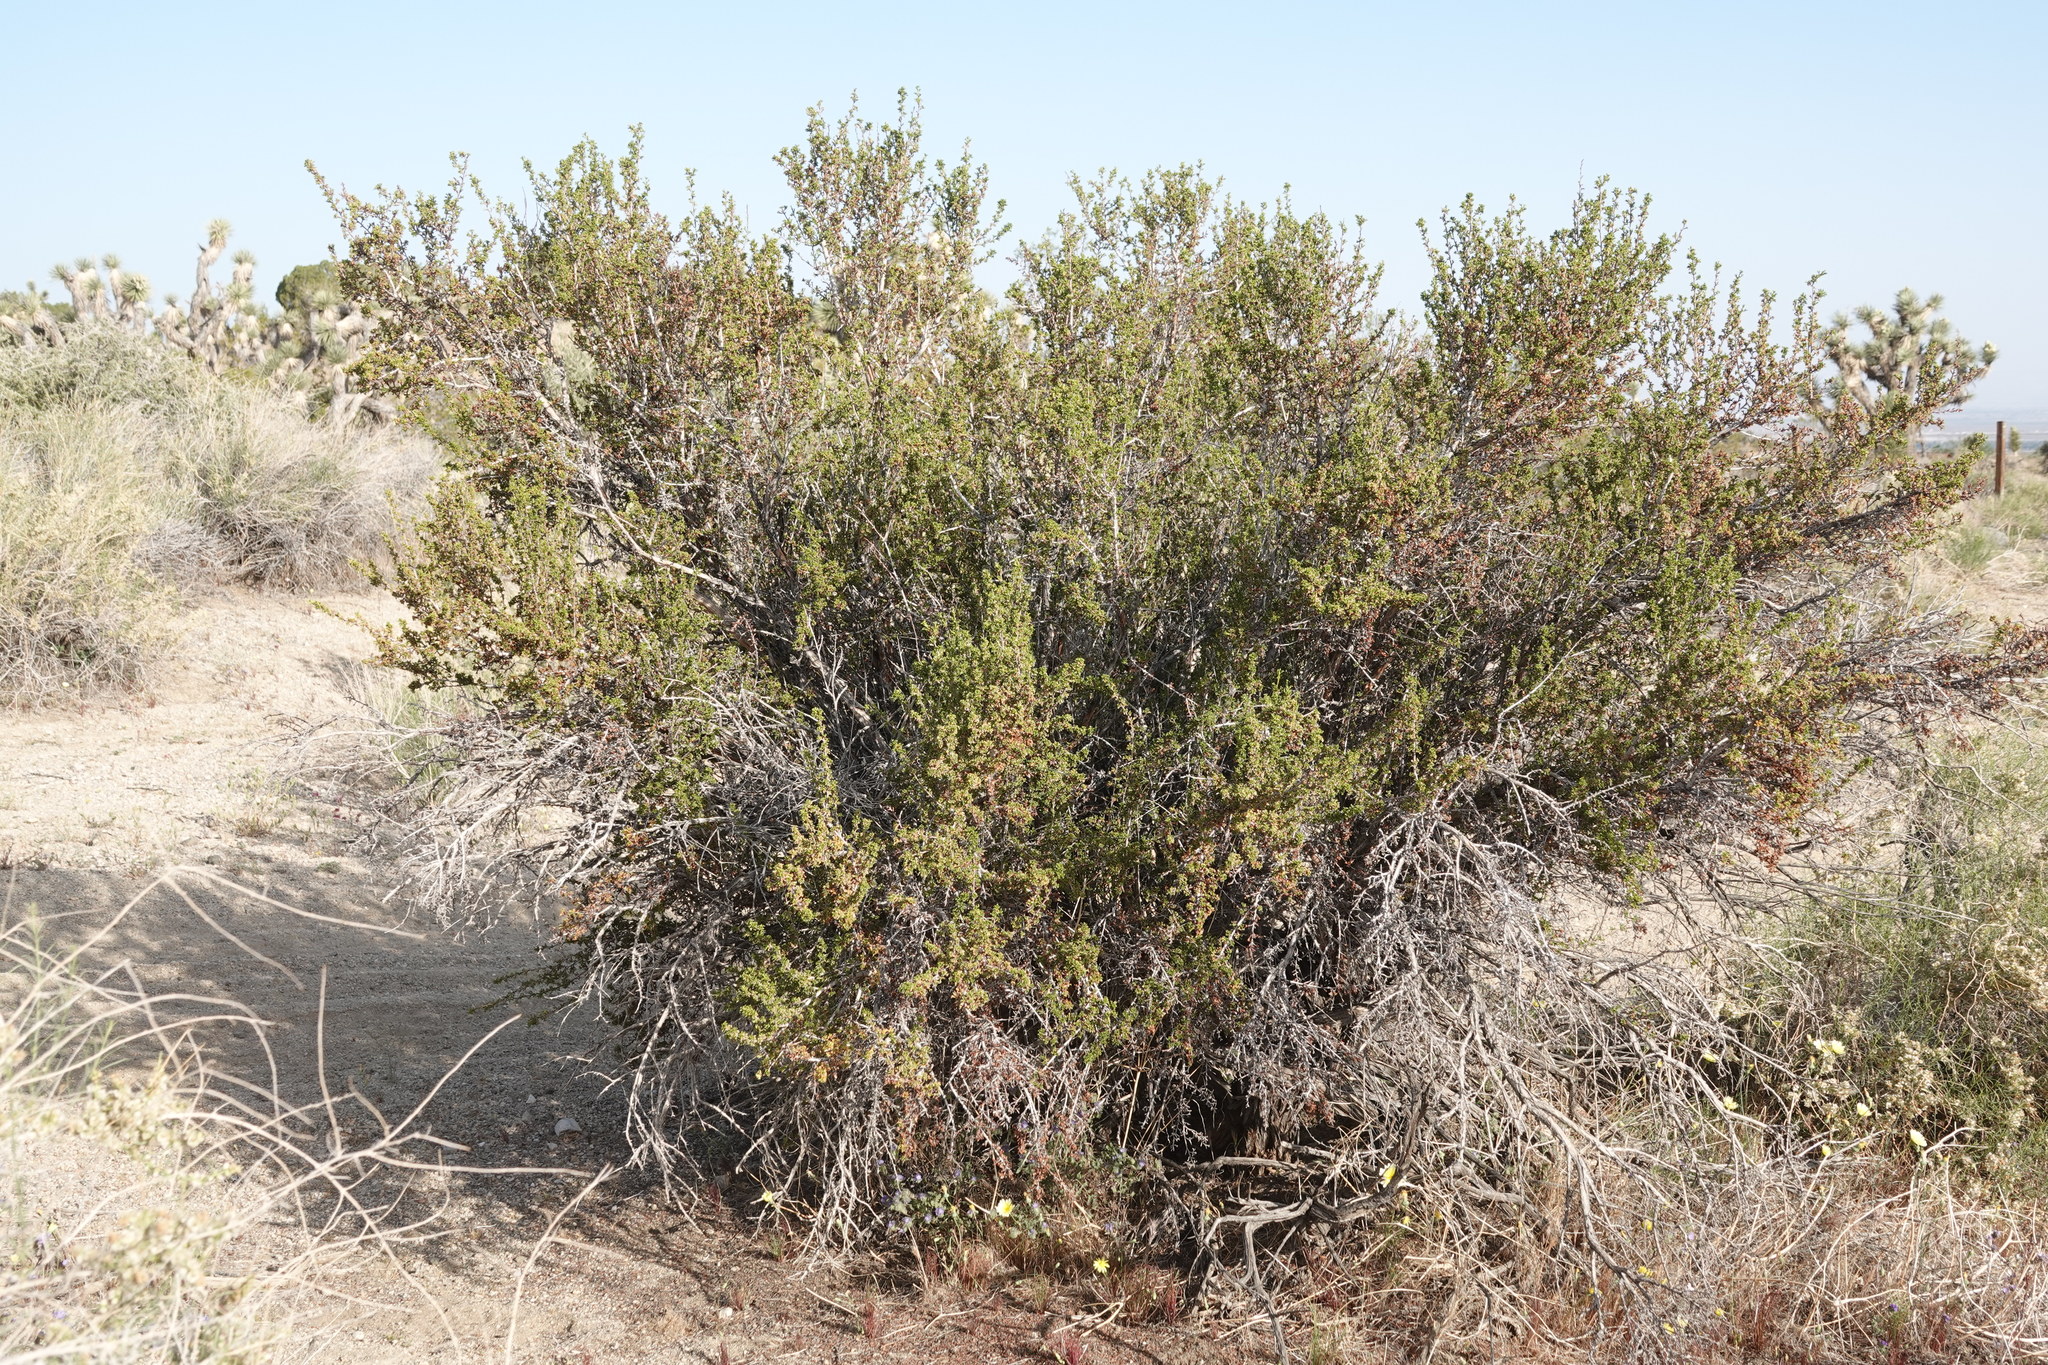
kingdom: Plantae
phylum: Tracheophyta
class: Magnoliopsida
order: Rosales
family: Rosaceae
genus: Purshia
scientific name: Purshia glandulosa
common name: Desert bitterbrush
